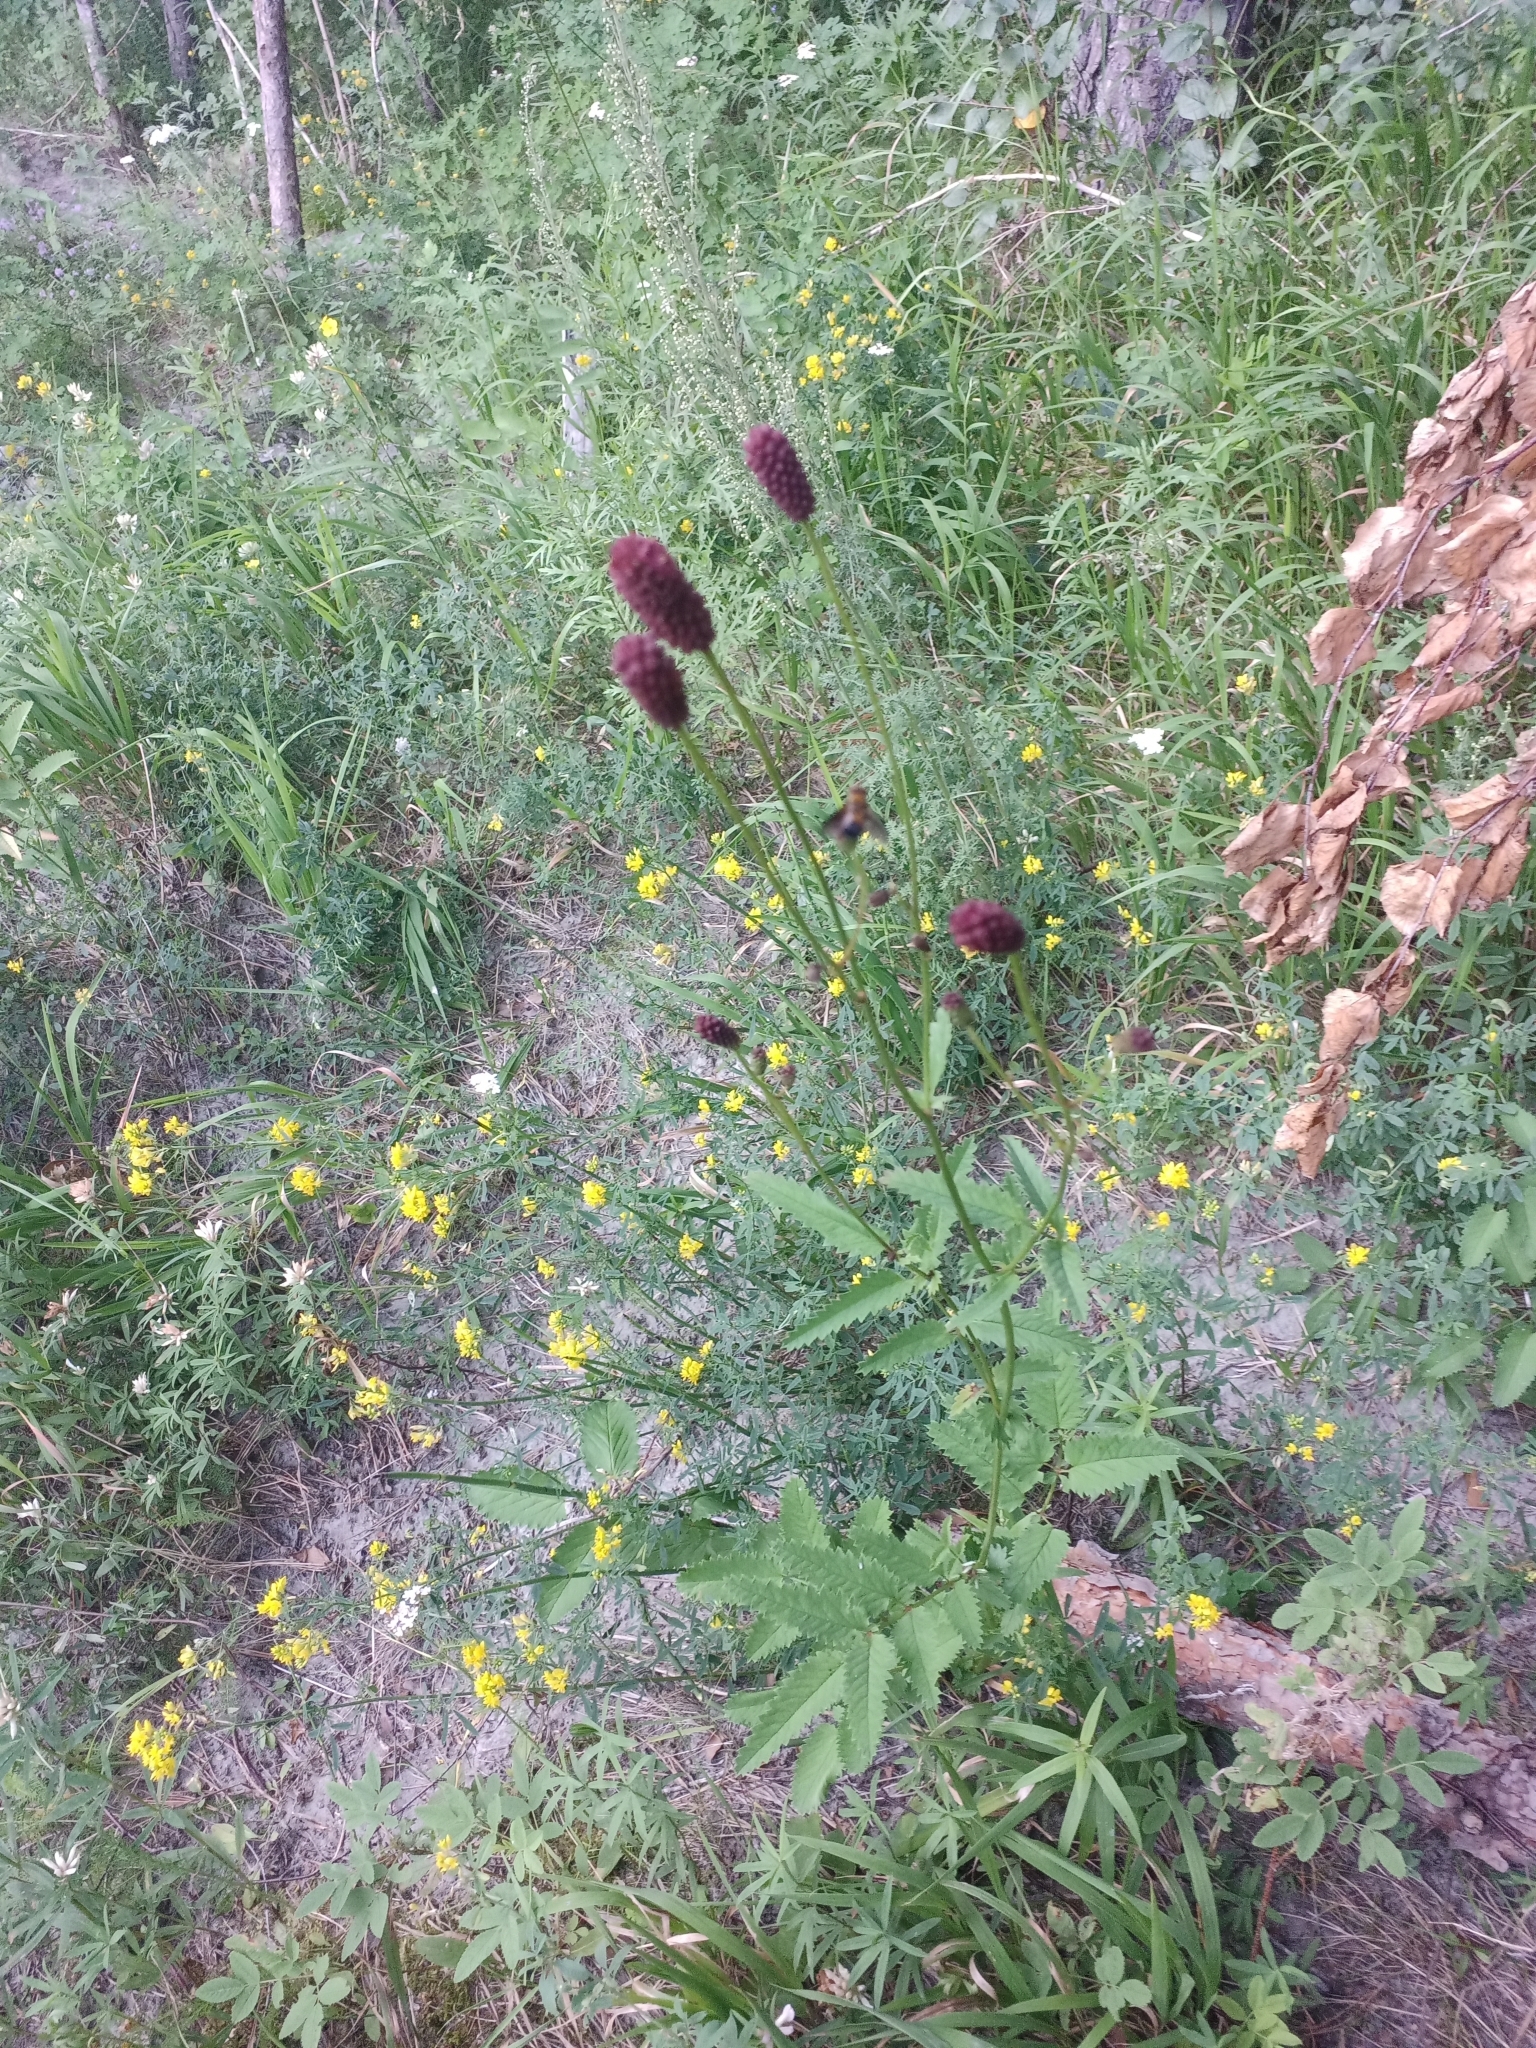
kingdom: Plantae
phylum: Tracheophyta
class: Magnoliopsida
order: Rosales
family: Rosaceae
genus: Sanguisorba
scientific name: Sanguisorba officinalis
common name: Great burnet
